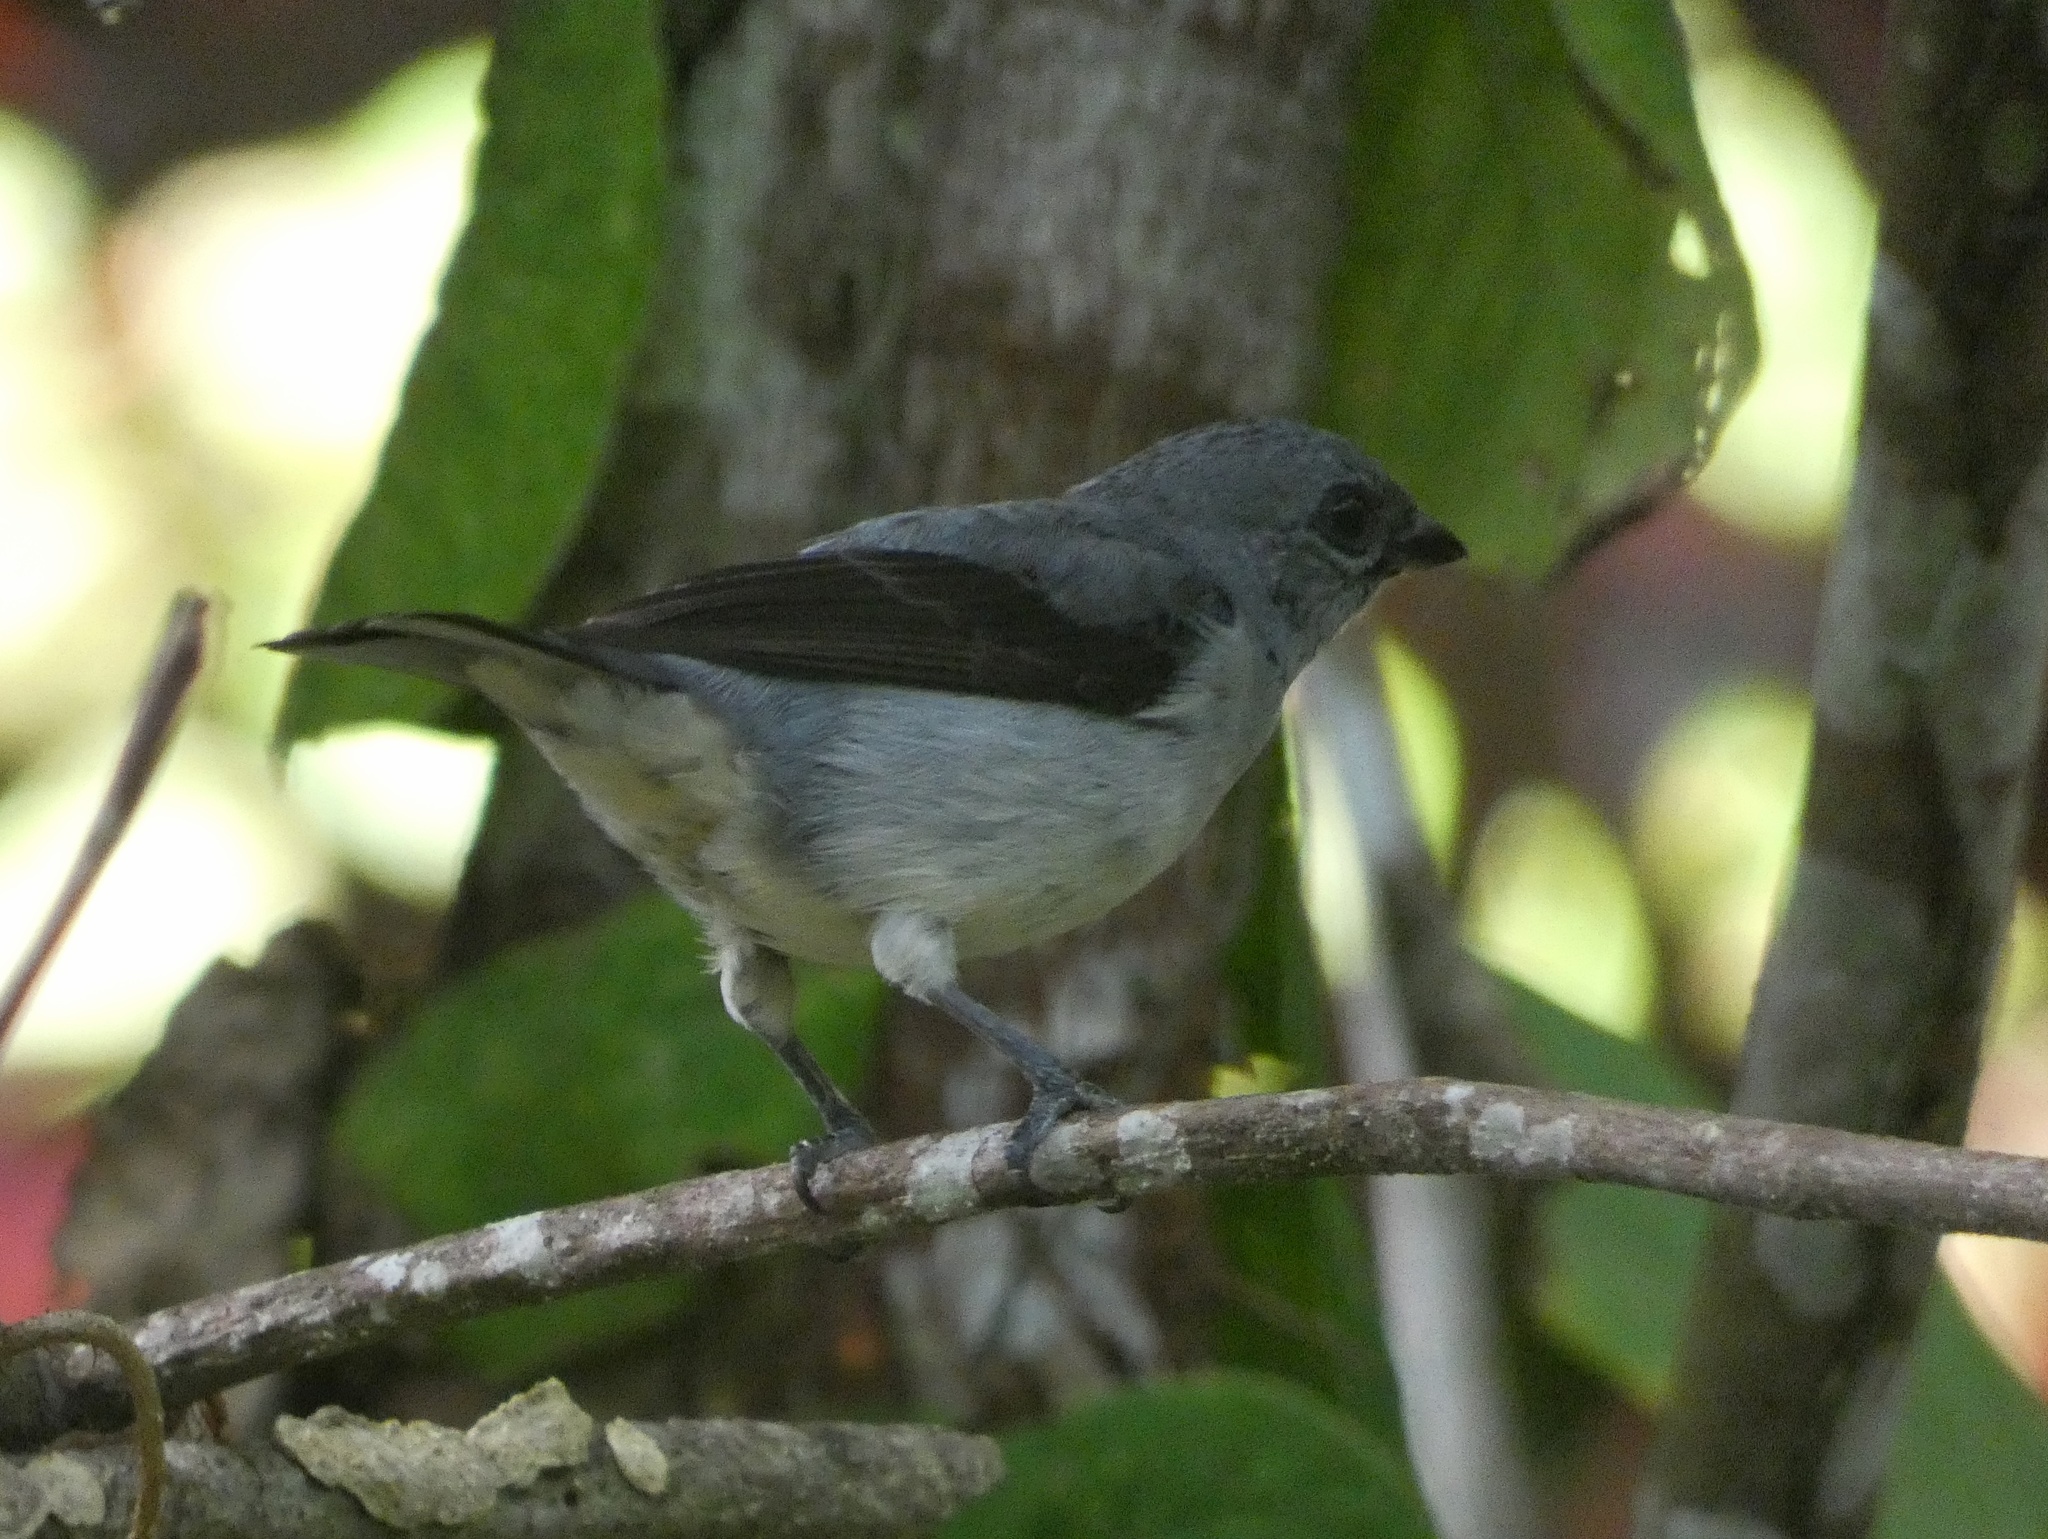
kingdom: Animalia
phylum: Chordata
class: Aves
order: Passeriformes
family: Thraupidae
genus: Tangara
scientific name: Tangara inornata
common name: Plain-colored tanager
